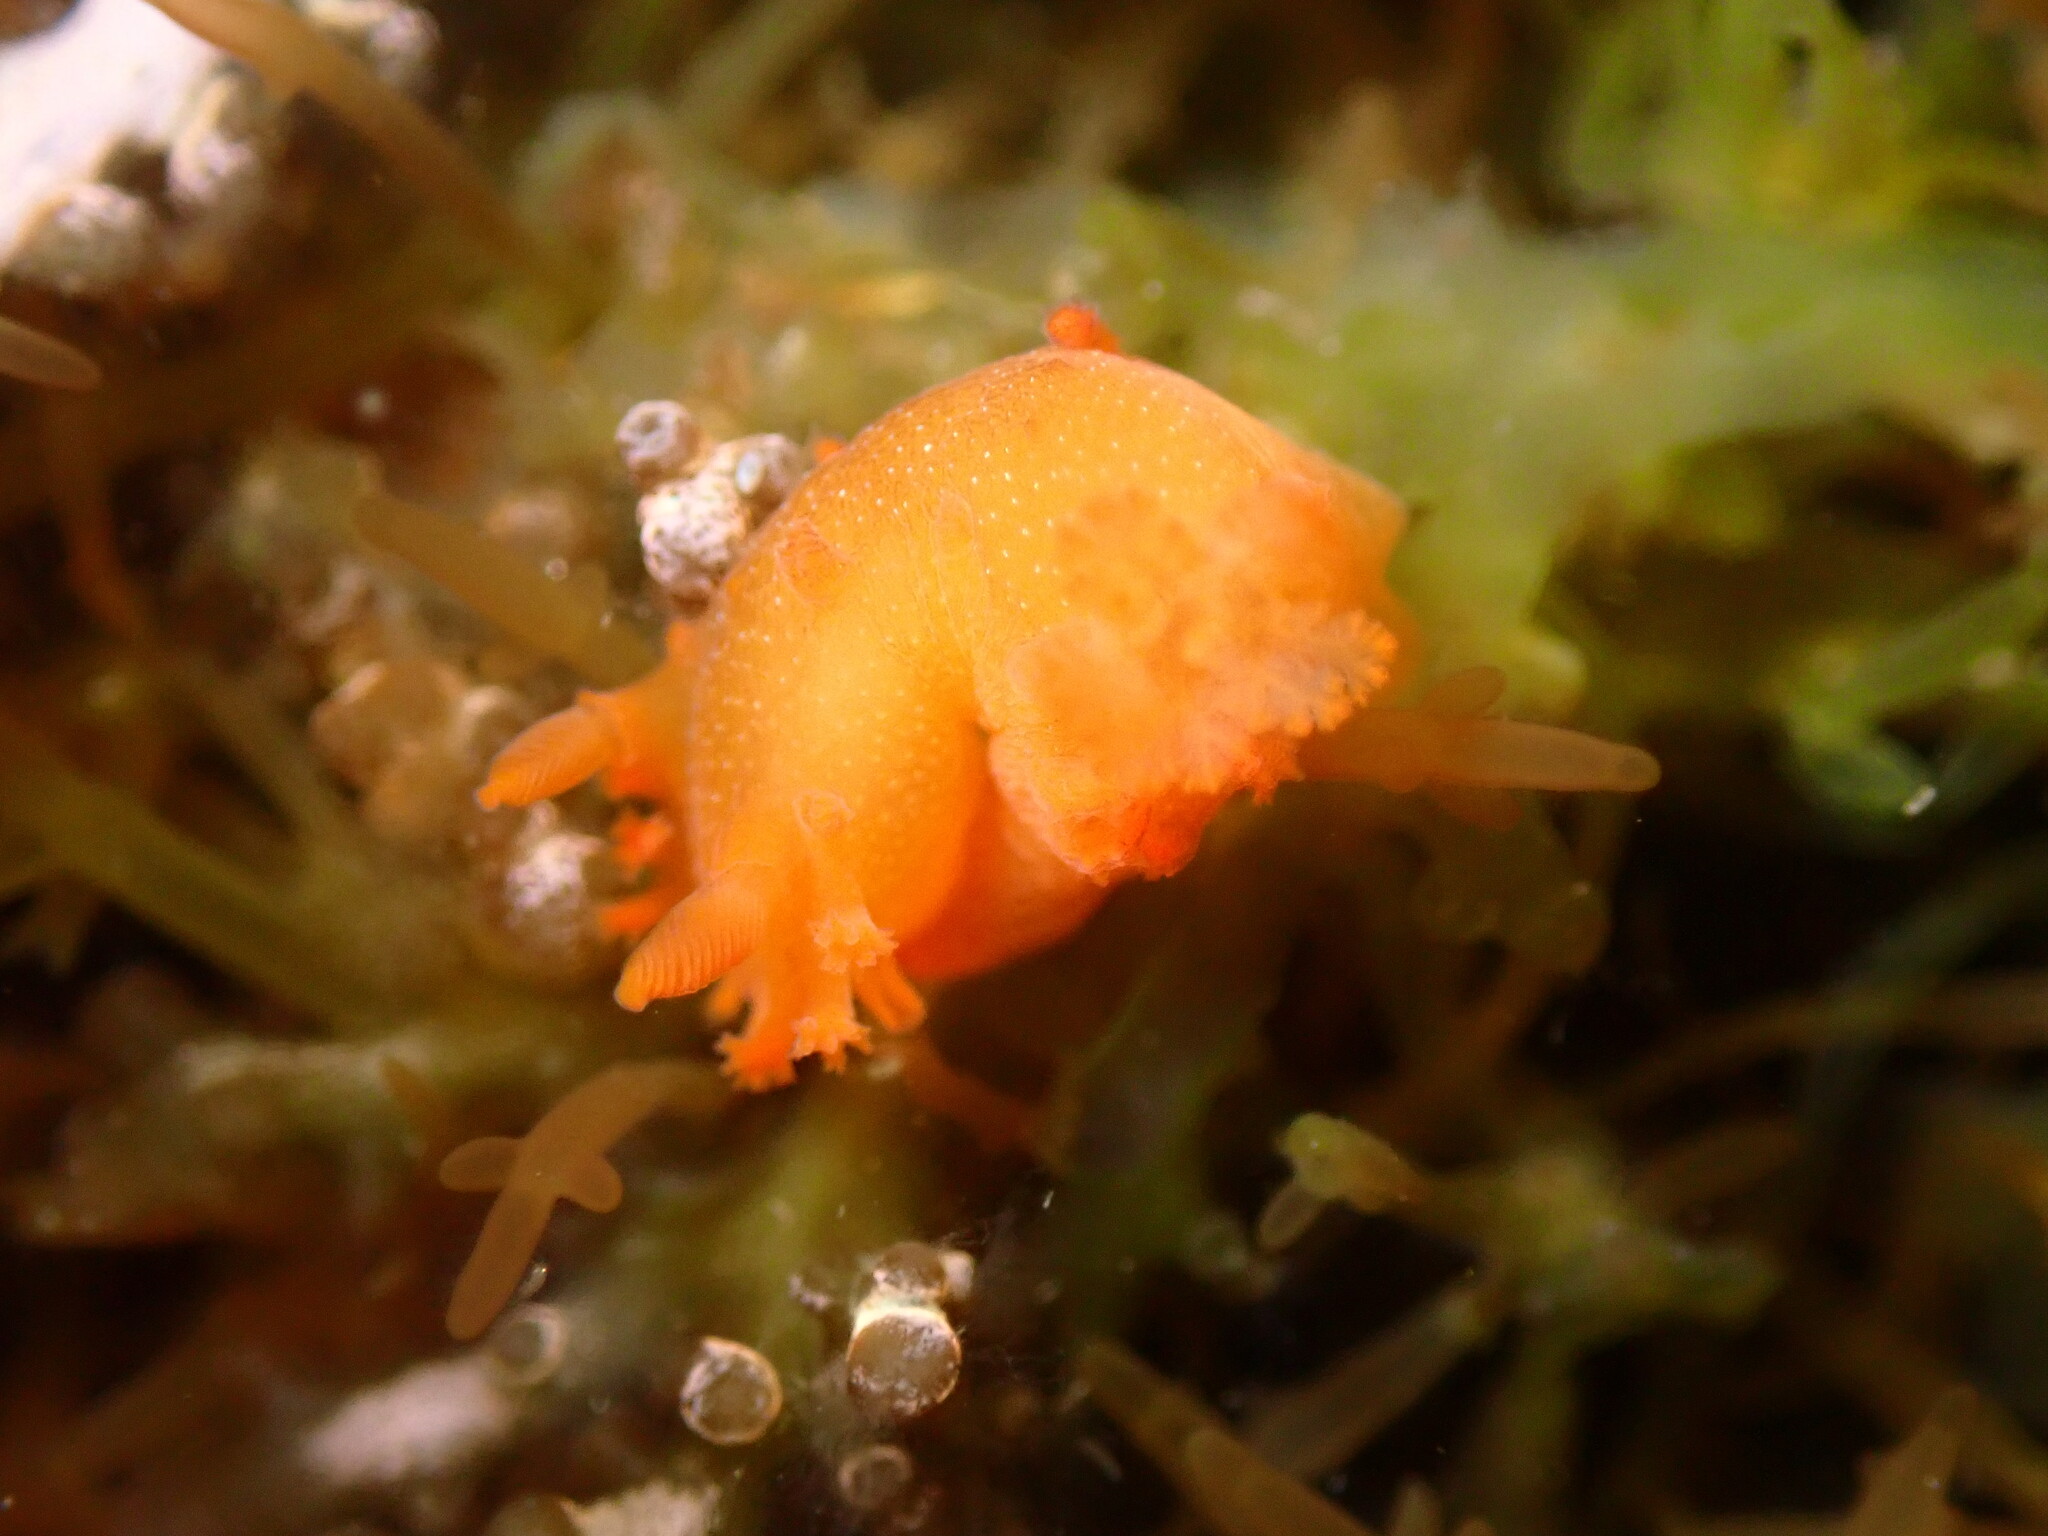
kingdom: Animalia
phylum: Mollusca
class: Gastropoda
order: Nudibranchia
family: Polyceridae
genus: Triopha
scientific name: Triopha maculata
